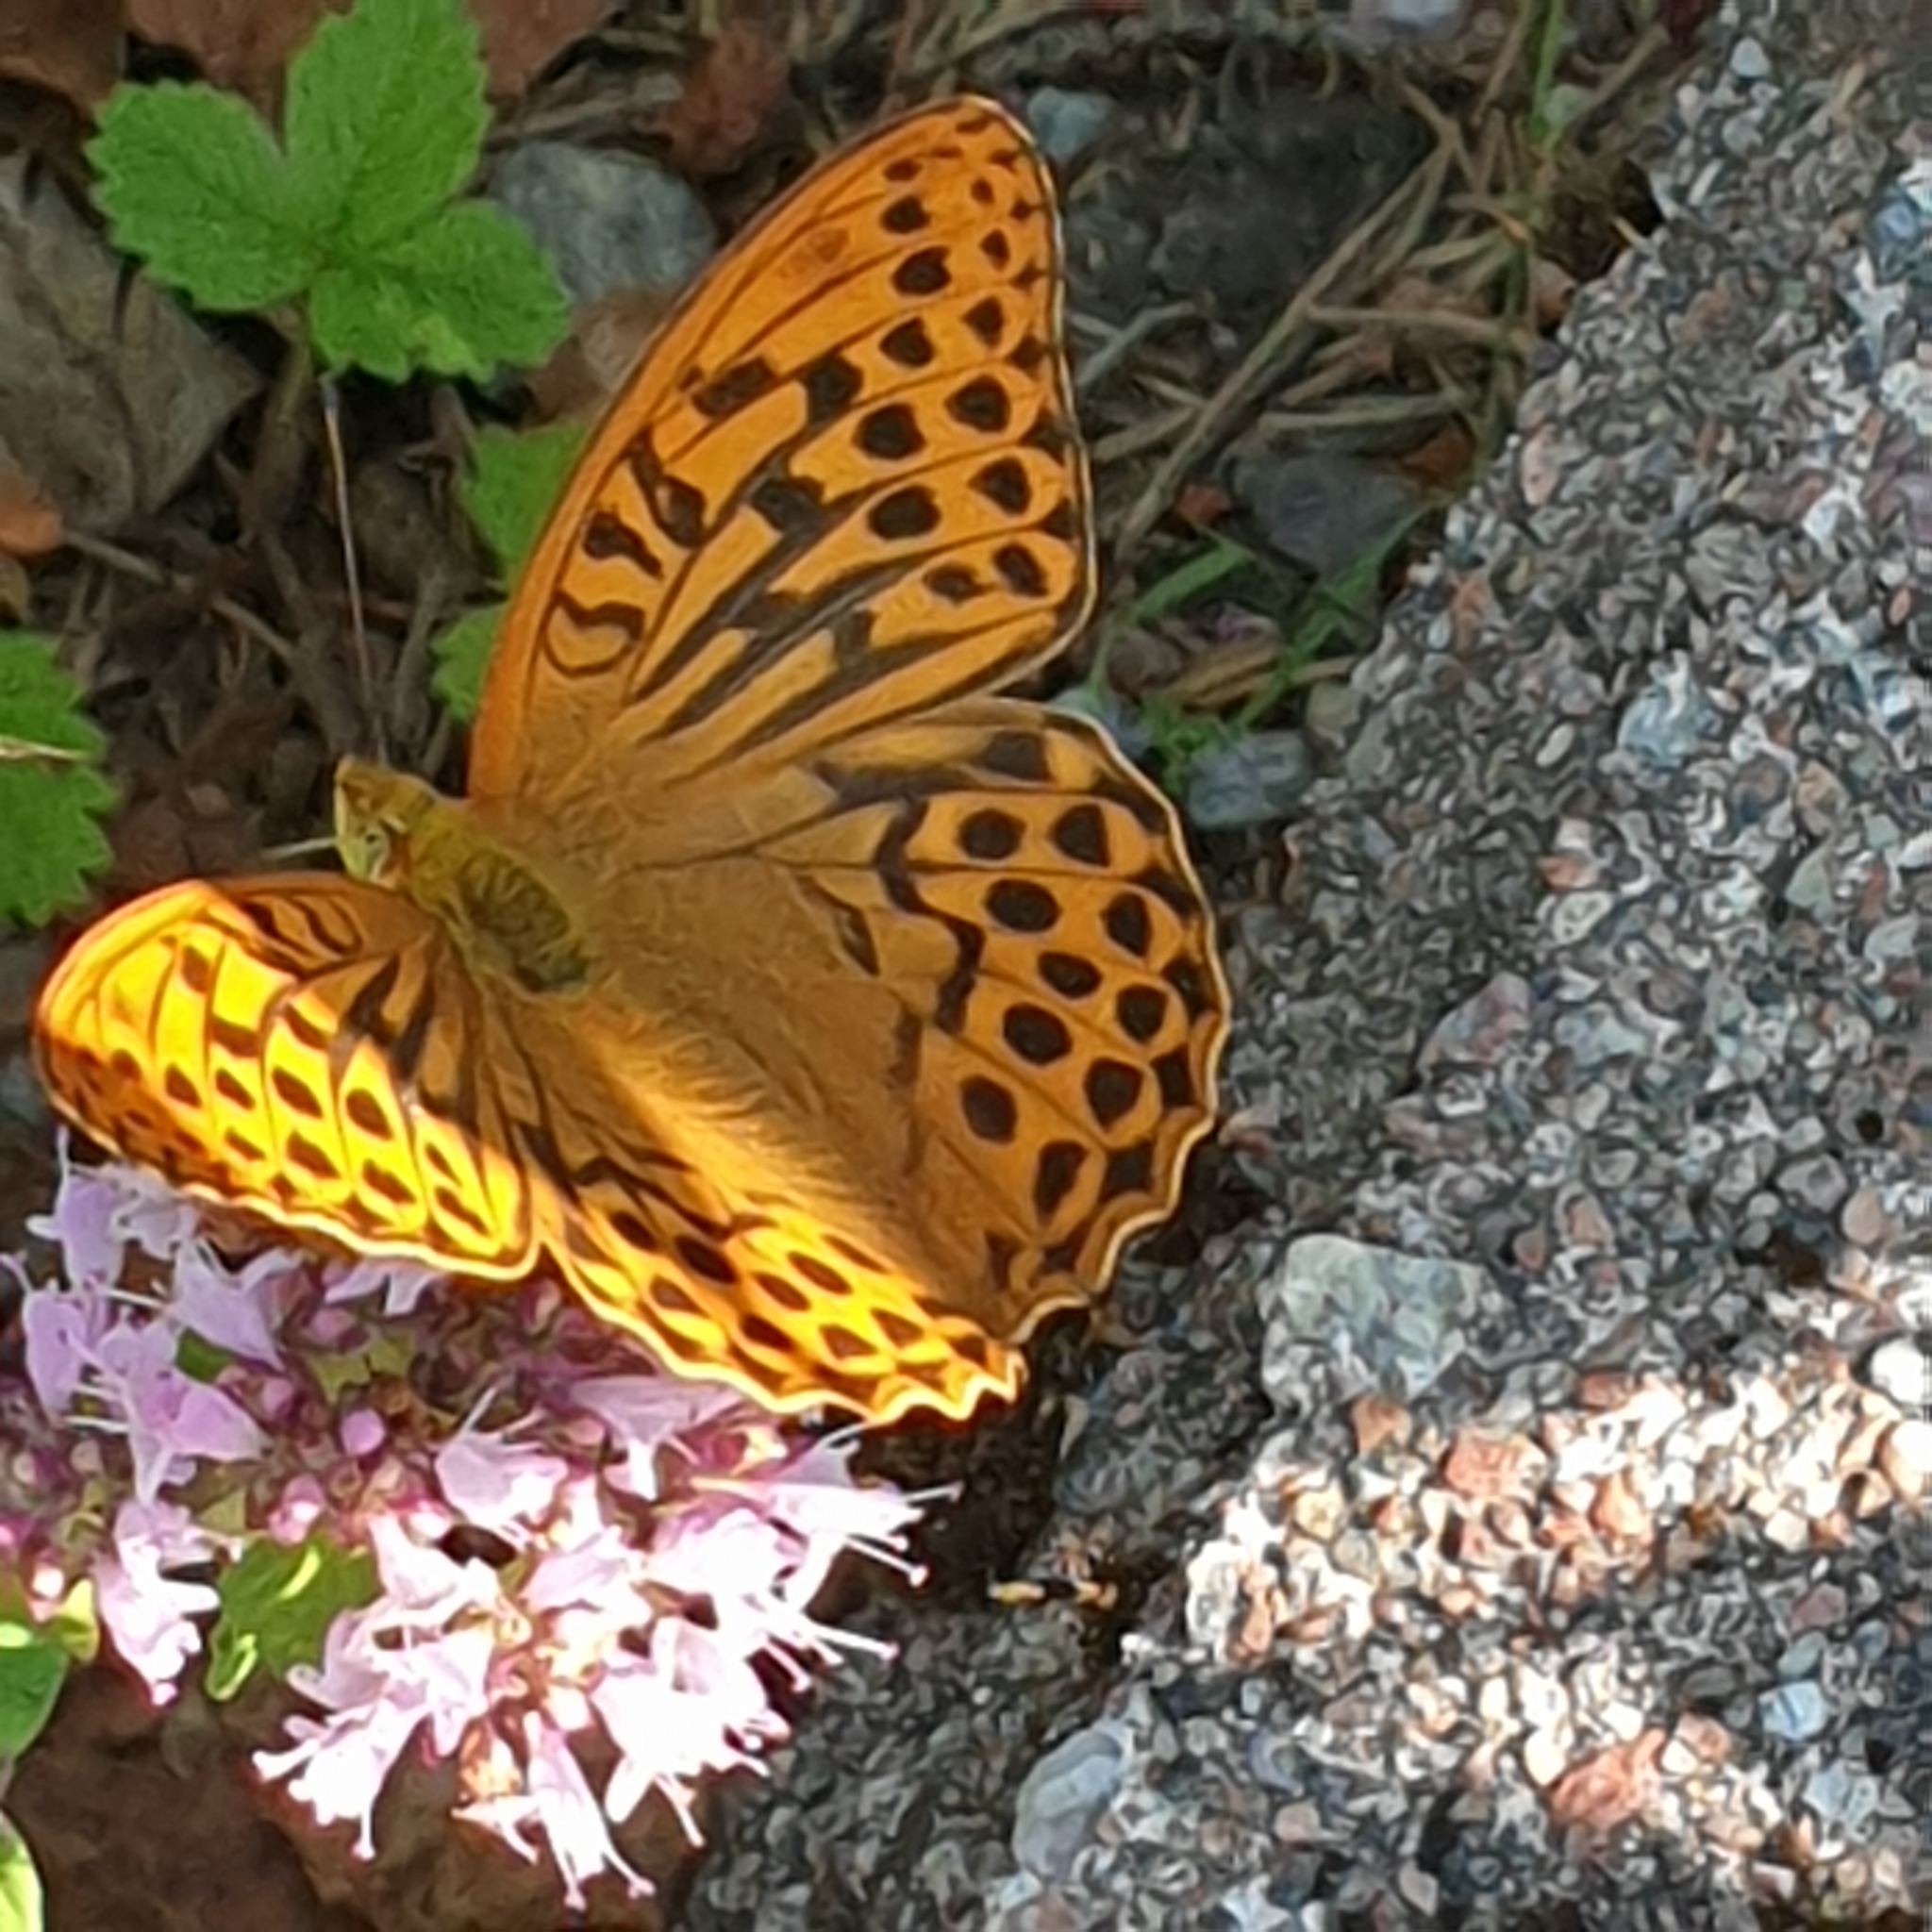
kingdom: Animalia
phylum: Arthropoda
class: Insecta
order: Lepidoptera
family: Nymphalidae
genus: Argynnis
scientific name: Argynnis paphia
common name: Silver-washed fritillary
